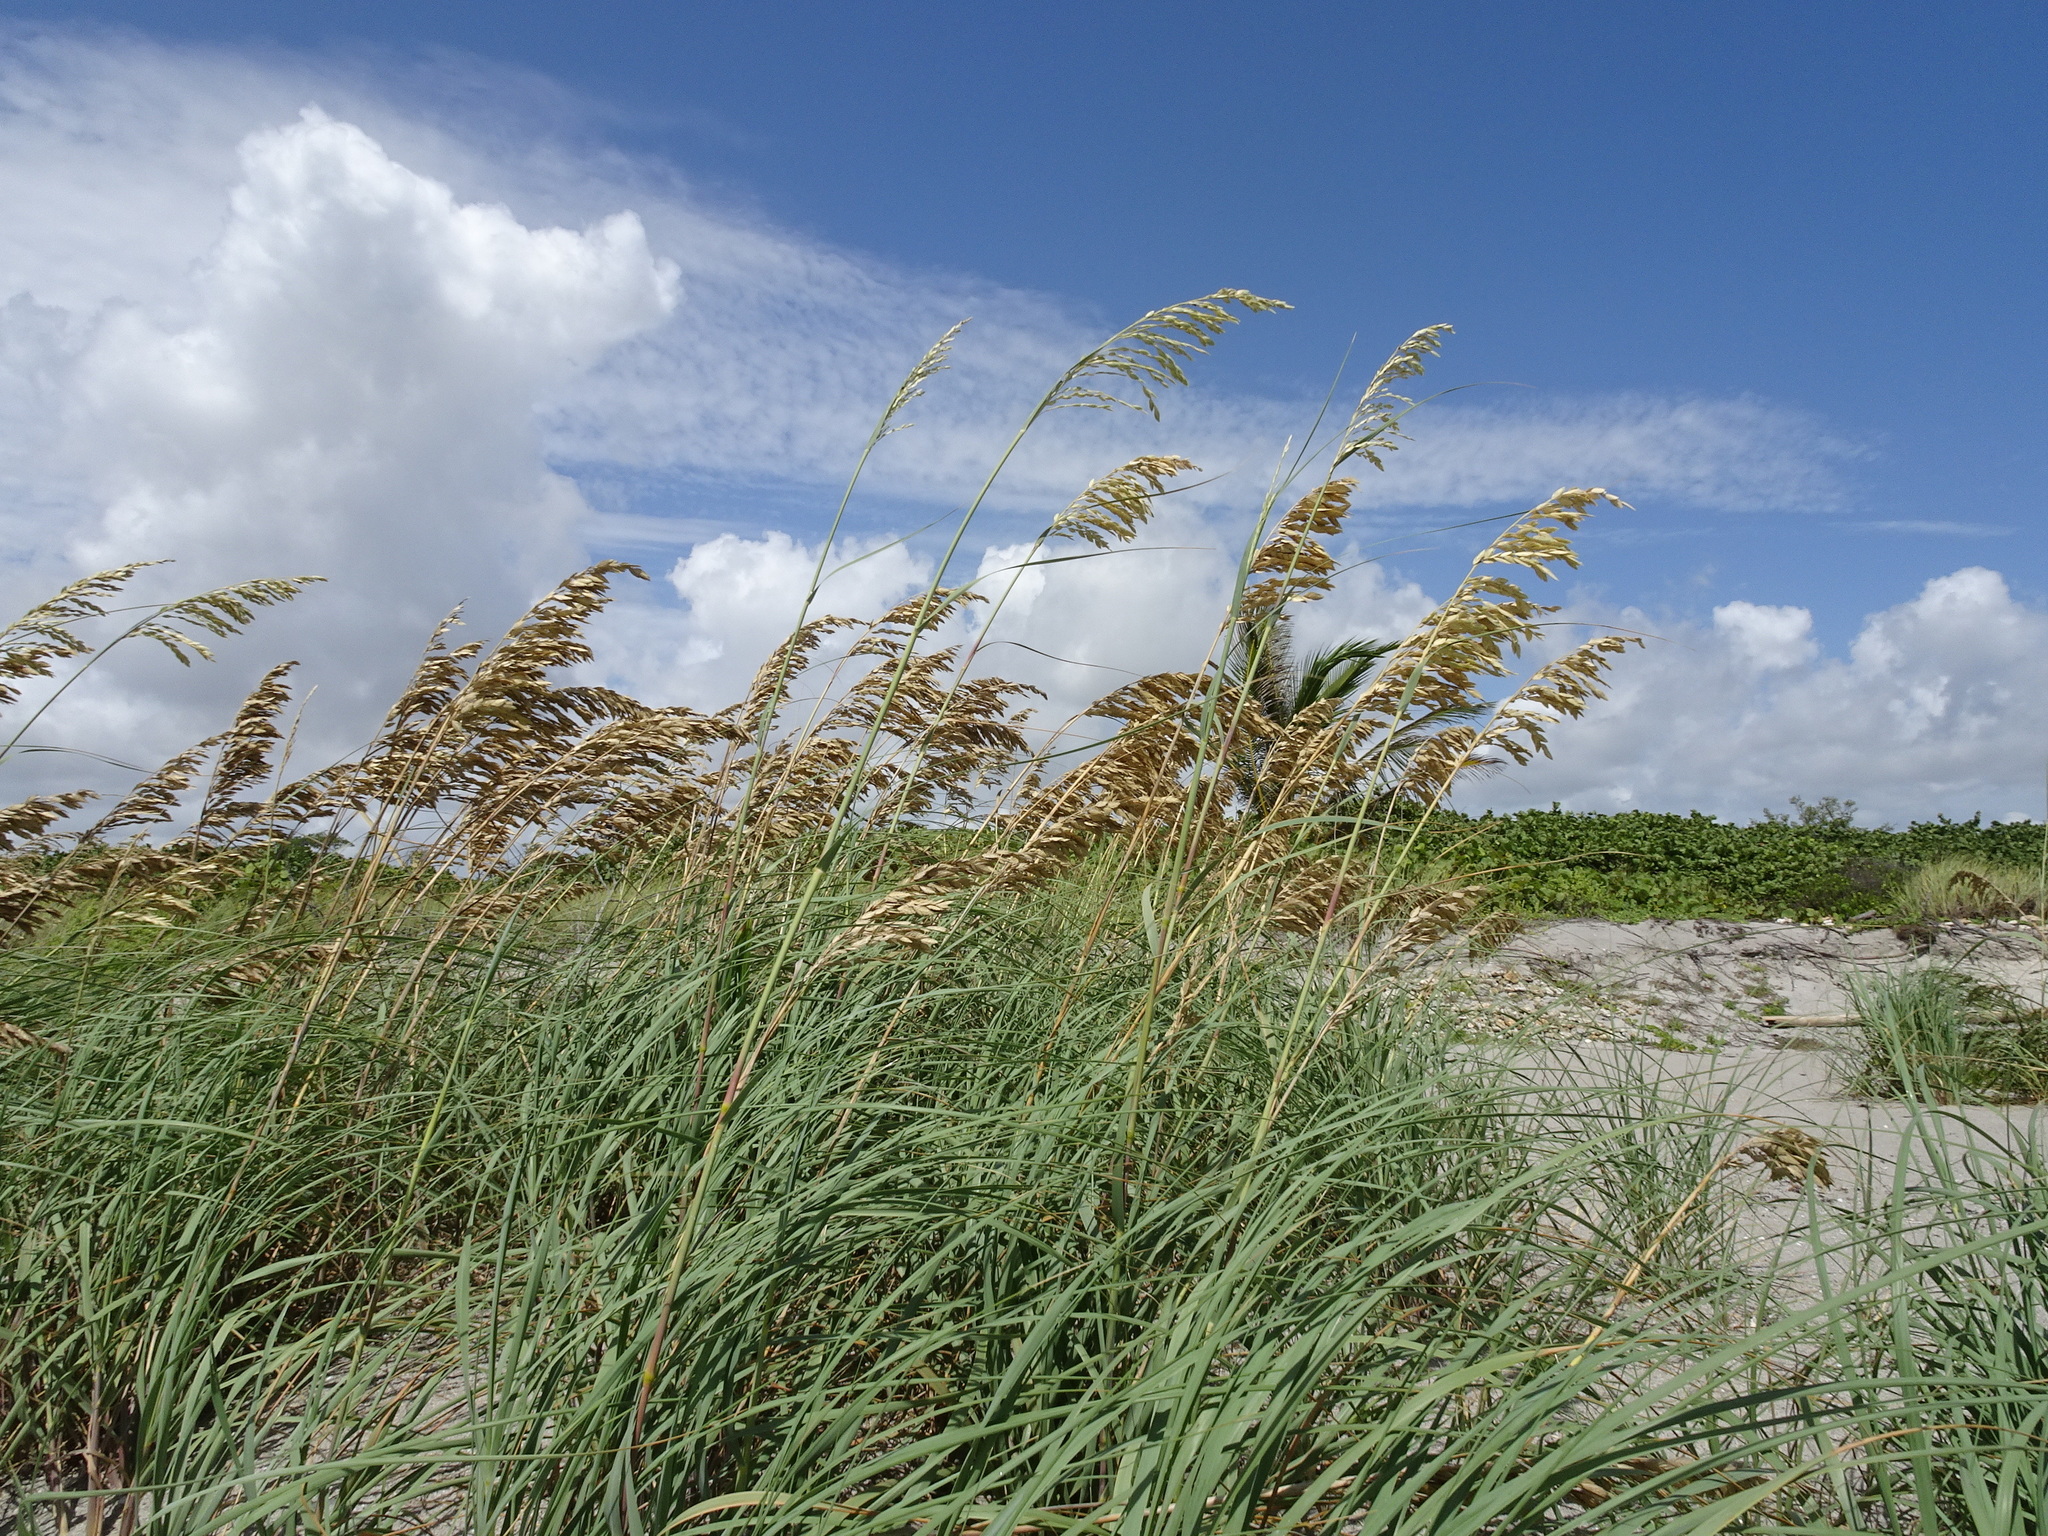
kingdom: Plantae
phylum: Tracheophyta
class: Liliopsida
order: Poales
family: Poaceae
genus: Uniola
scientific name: Uniola paniculata
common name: Seaside-oats
